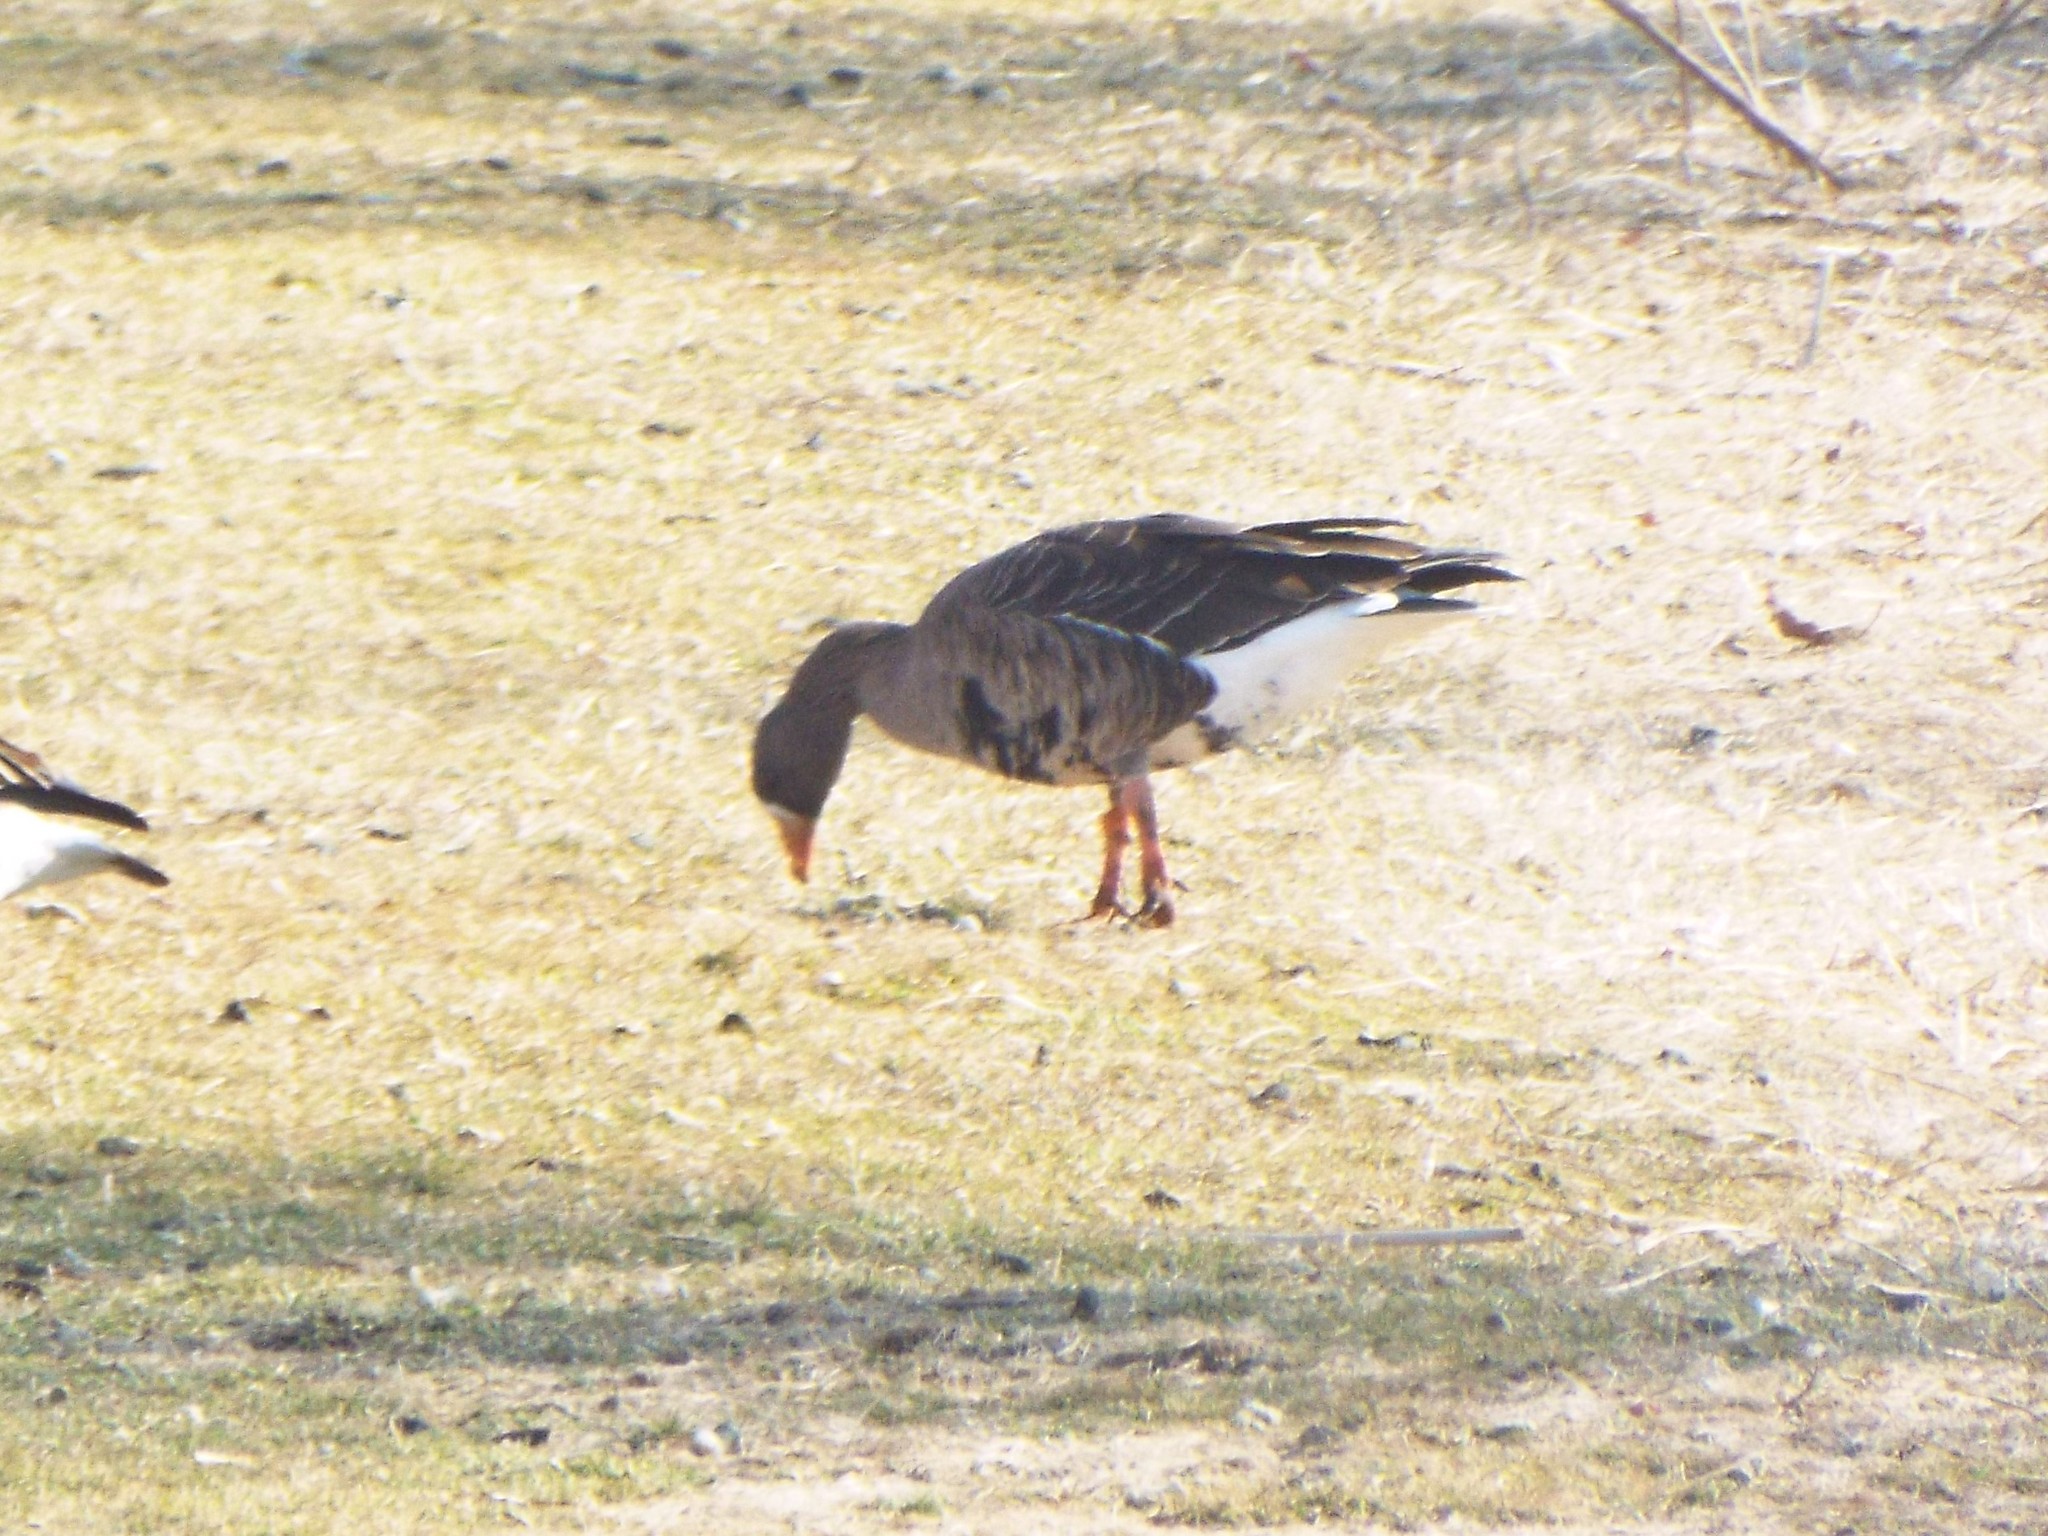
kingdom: Animalia
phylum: Chordata
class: Aves
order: Anseriformes
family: Anatidae
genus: Anser
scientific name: Anser albifrons
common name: Greater white-fronted goose
